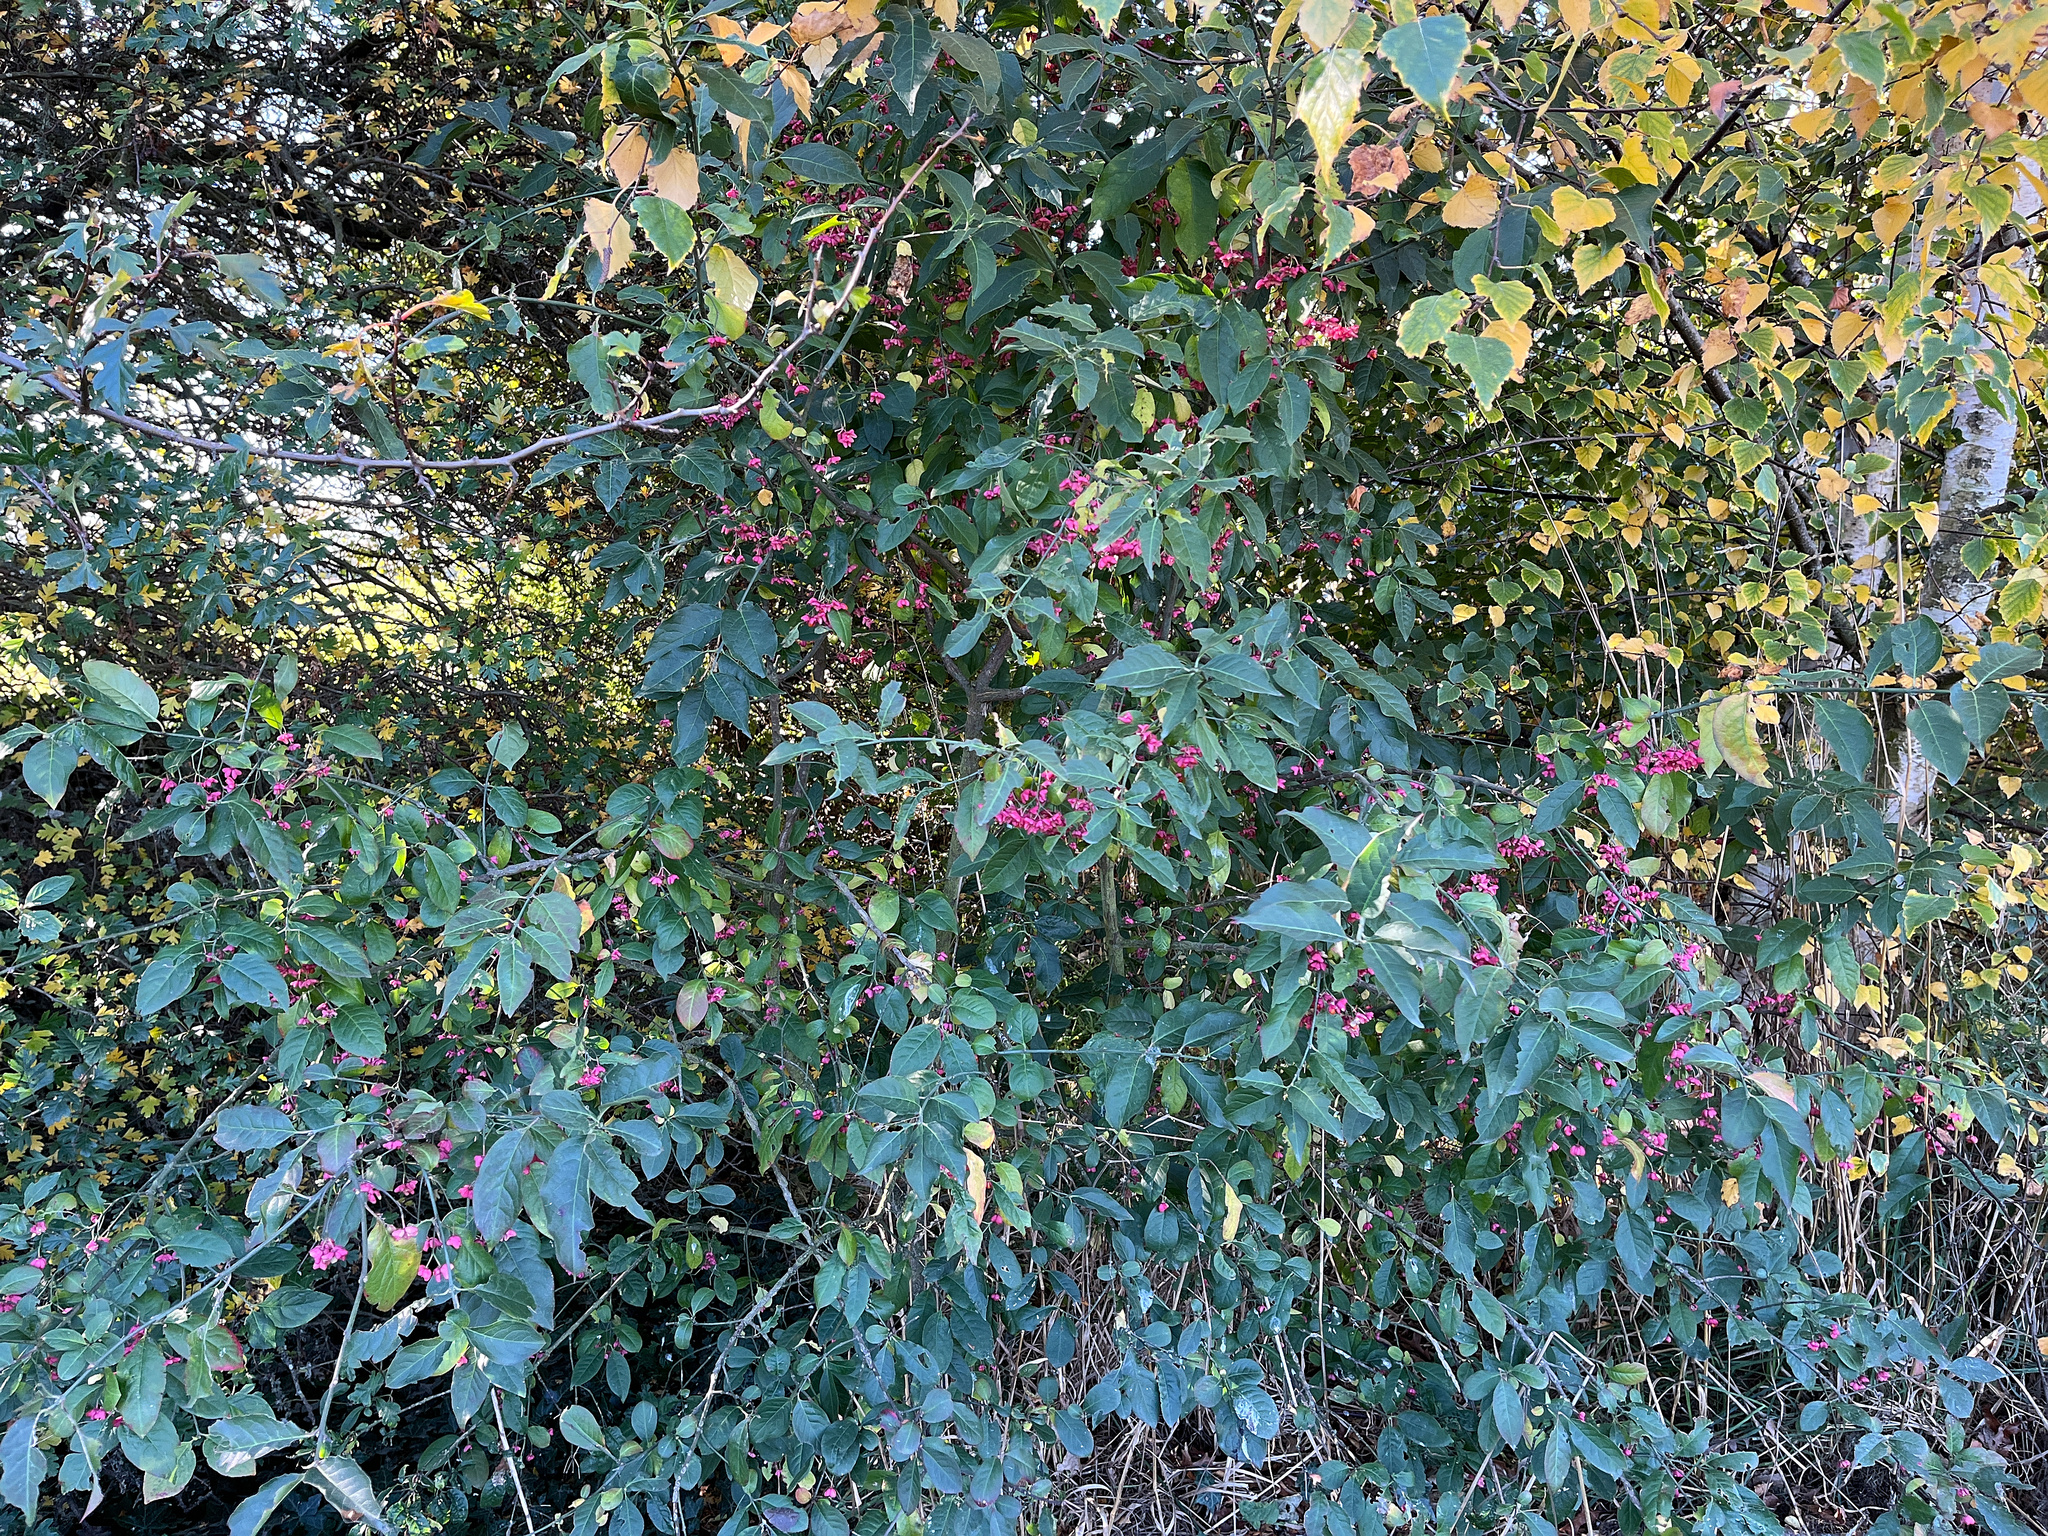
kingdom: Plantae
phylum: Tracheophyta
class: Magnoliopsida
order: Celastrales
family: Celastraceae
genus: Euonymus
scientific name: Euonymus europaeus
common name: Spindle
